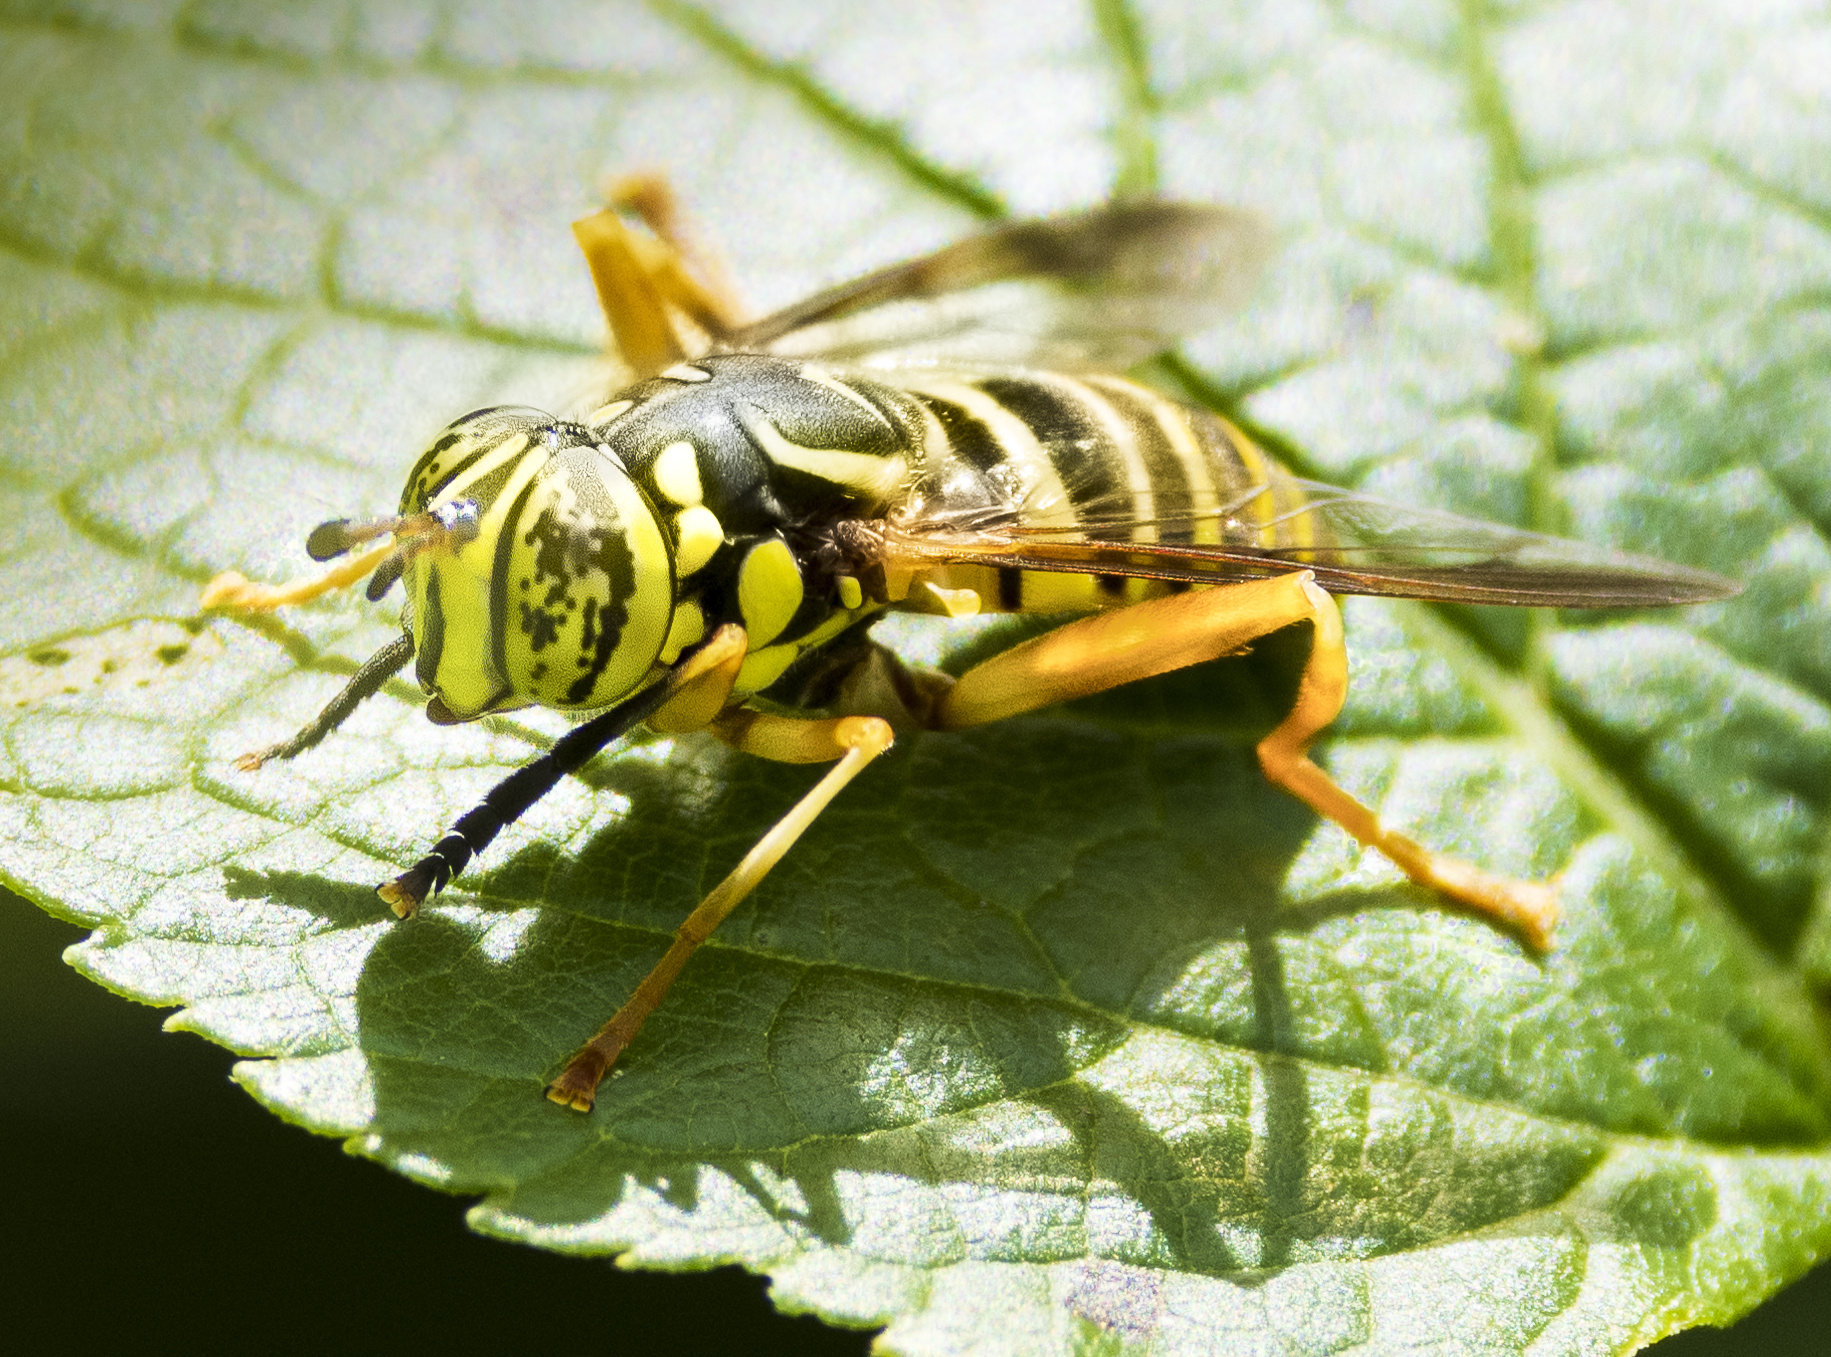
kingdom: Animalia
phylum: Arthropoda
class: Insecta
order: Diptera
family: Syrphidae
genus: Spilomyia
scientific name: Spilomyia longicornis
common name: Eastern hornet fly
